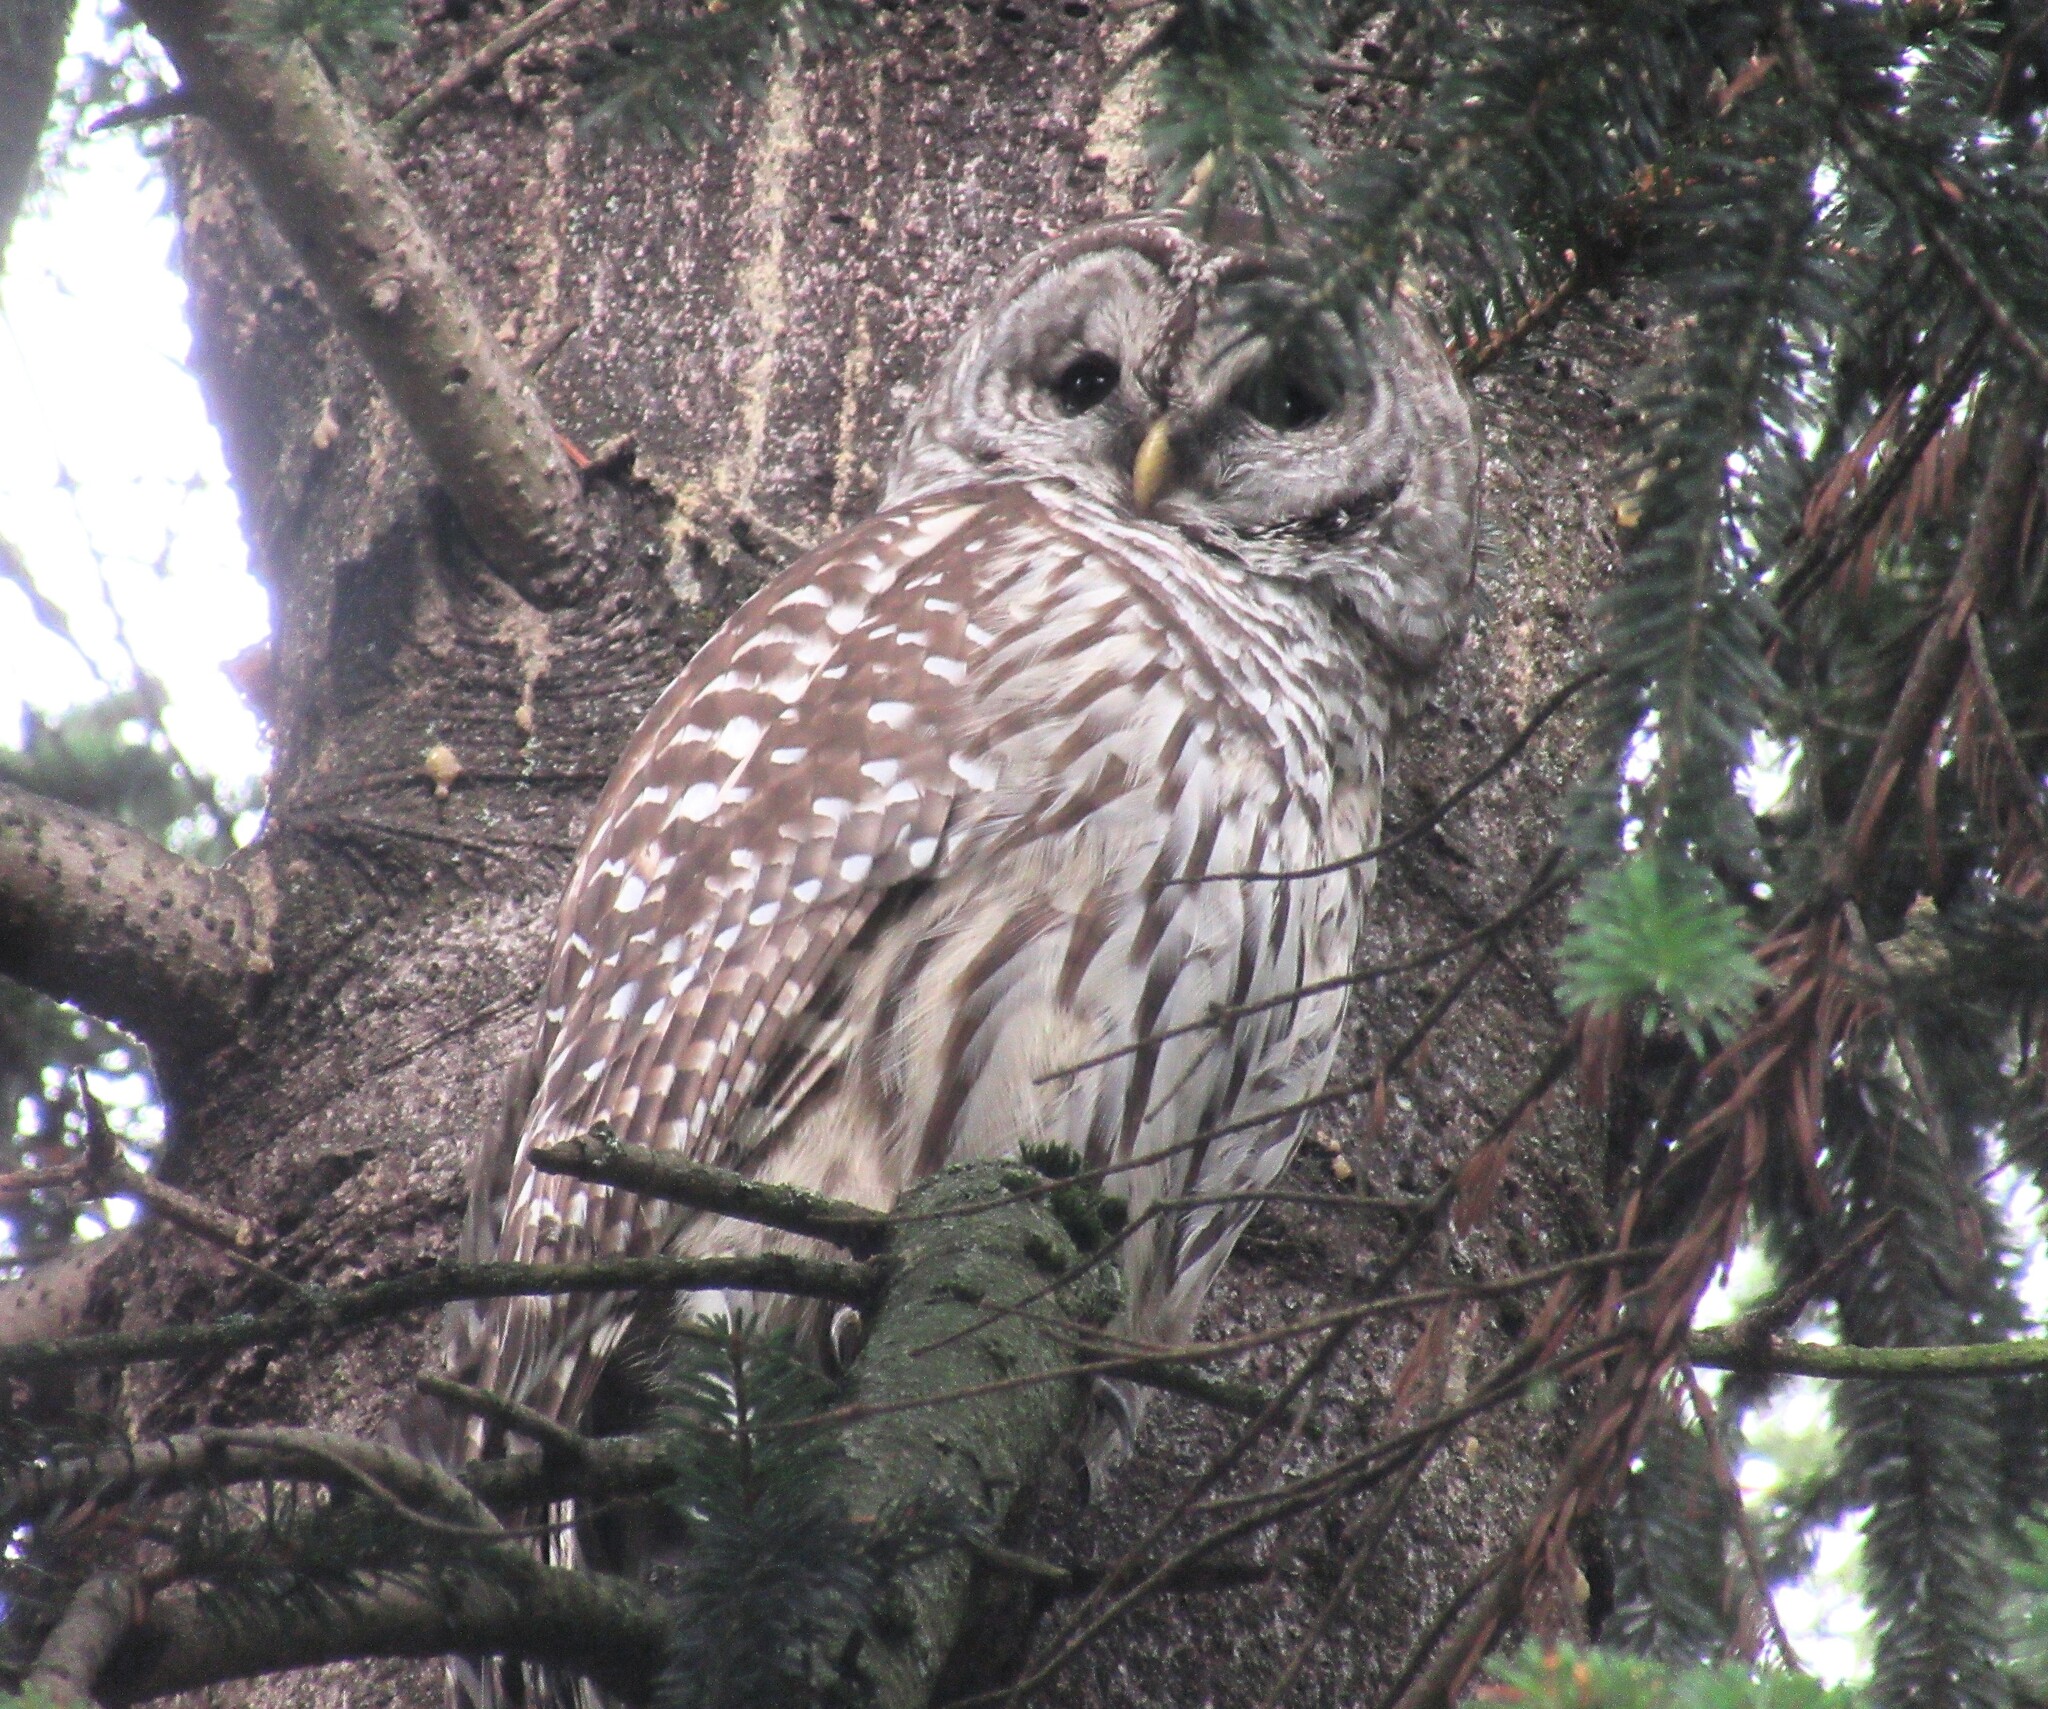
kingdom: Animalia
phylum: Chordata
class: Aves
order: Strigiformes
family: Strigidae
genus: Strix
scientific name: Strix varia
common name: Barred owl
